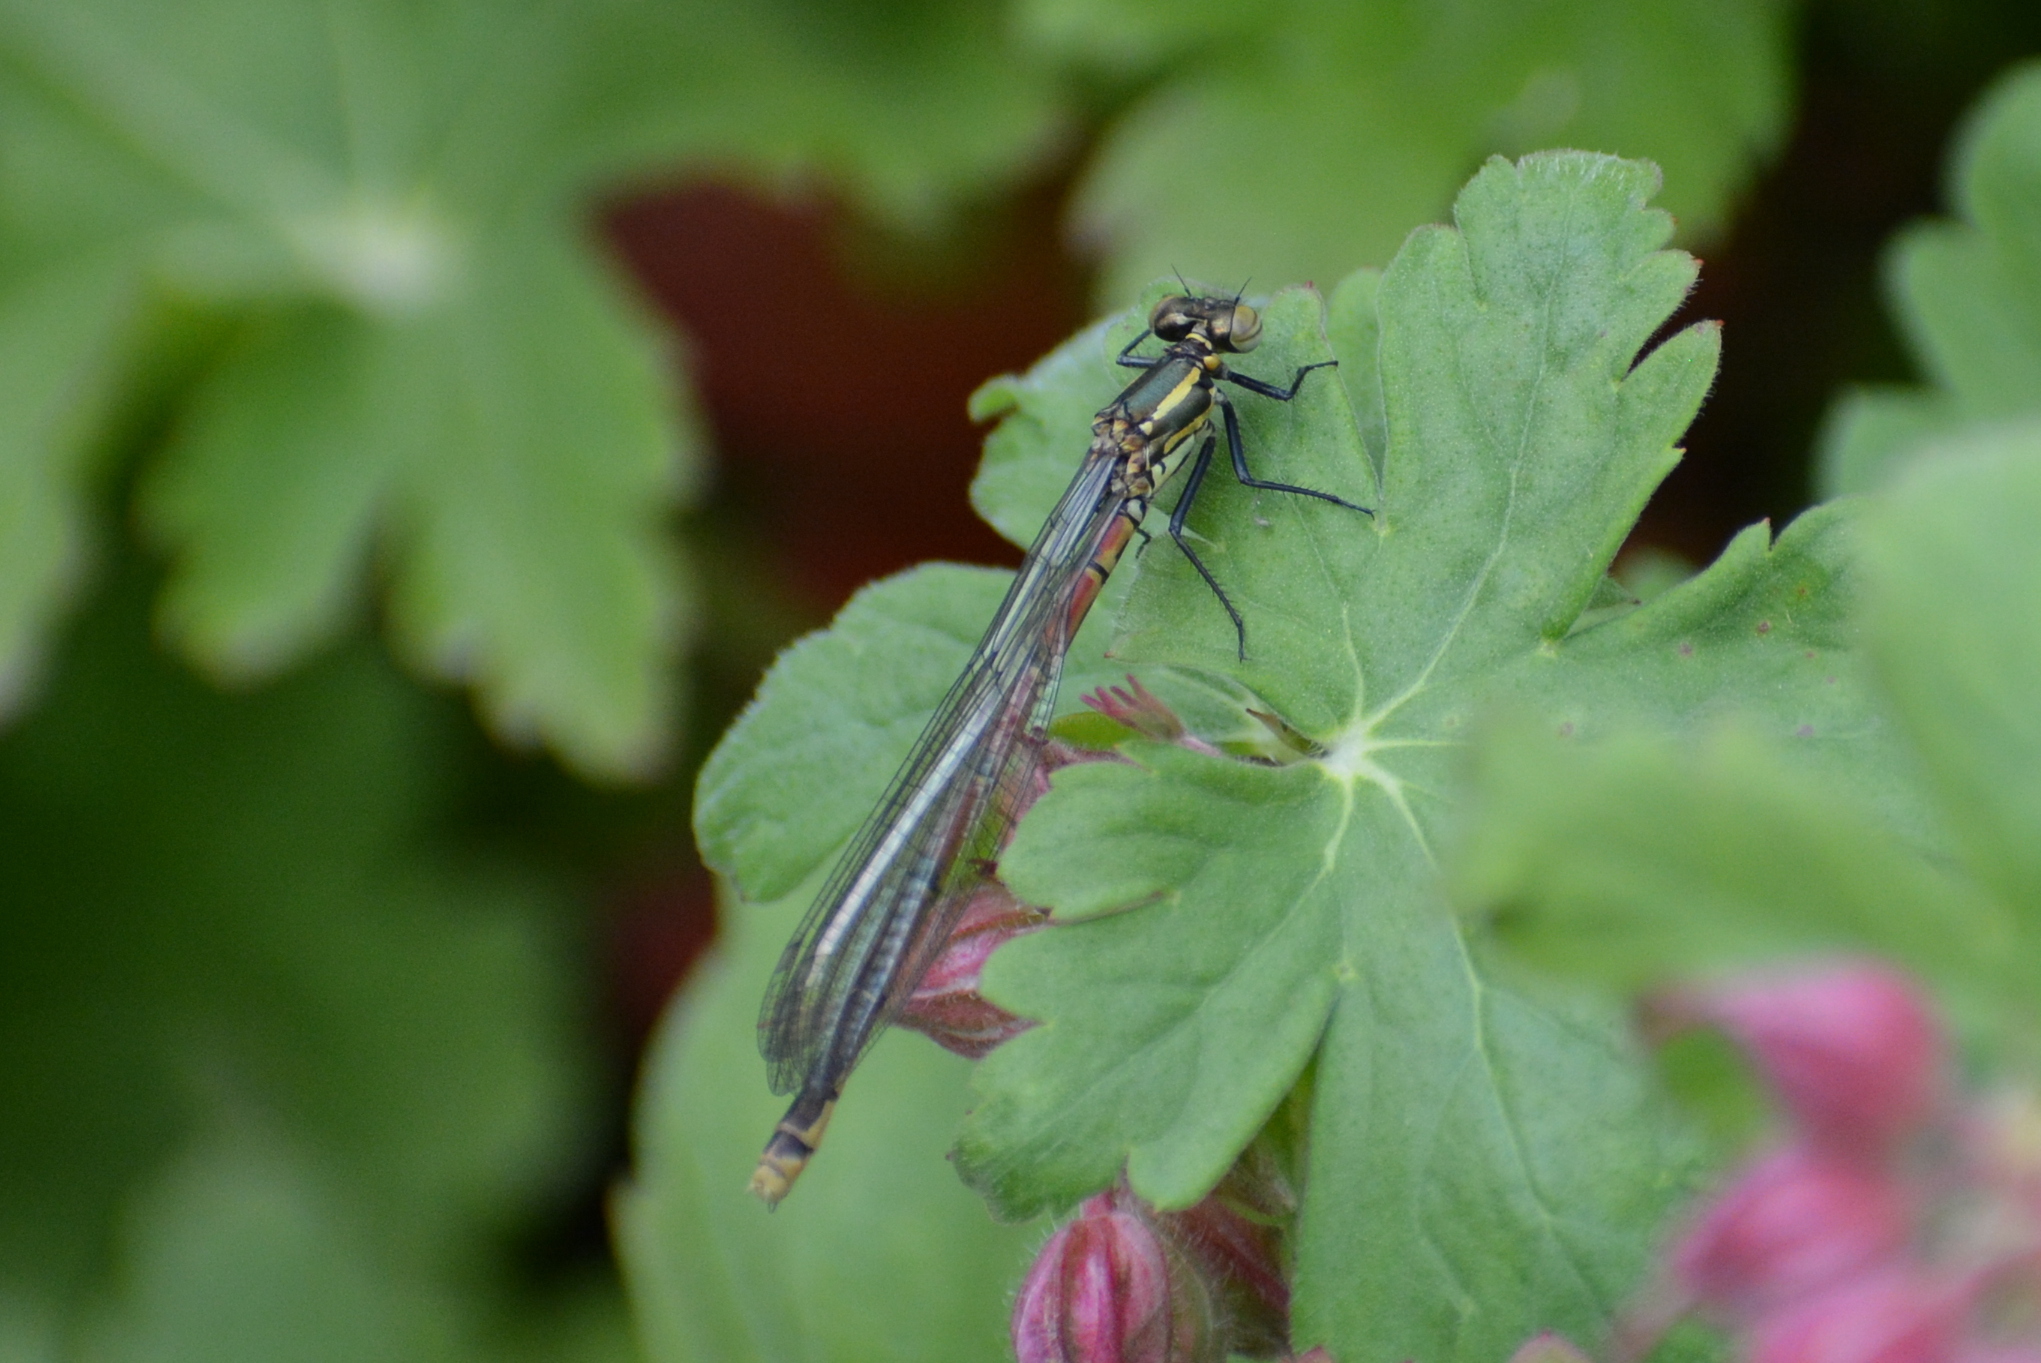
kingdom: Animalia
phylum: Arthropoda
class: Insecta
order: Odonata
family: Coenagrionidae
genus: Pyrrhosoma
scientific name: Pyrrhosoma nymphula
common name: Large red damsel
